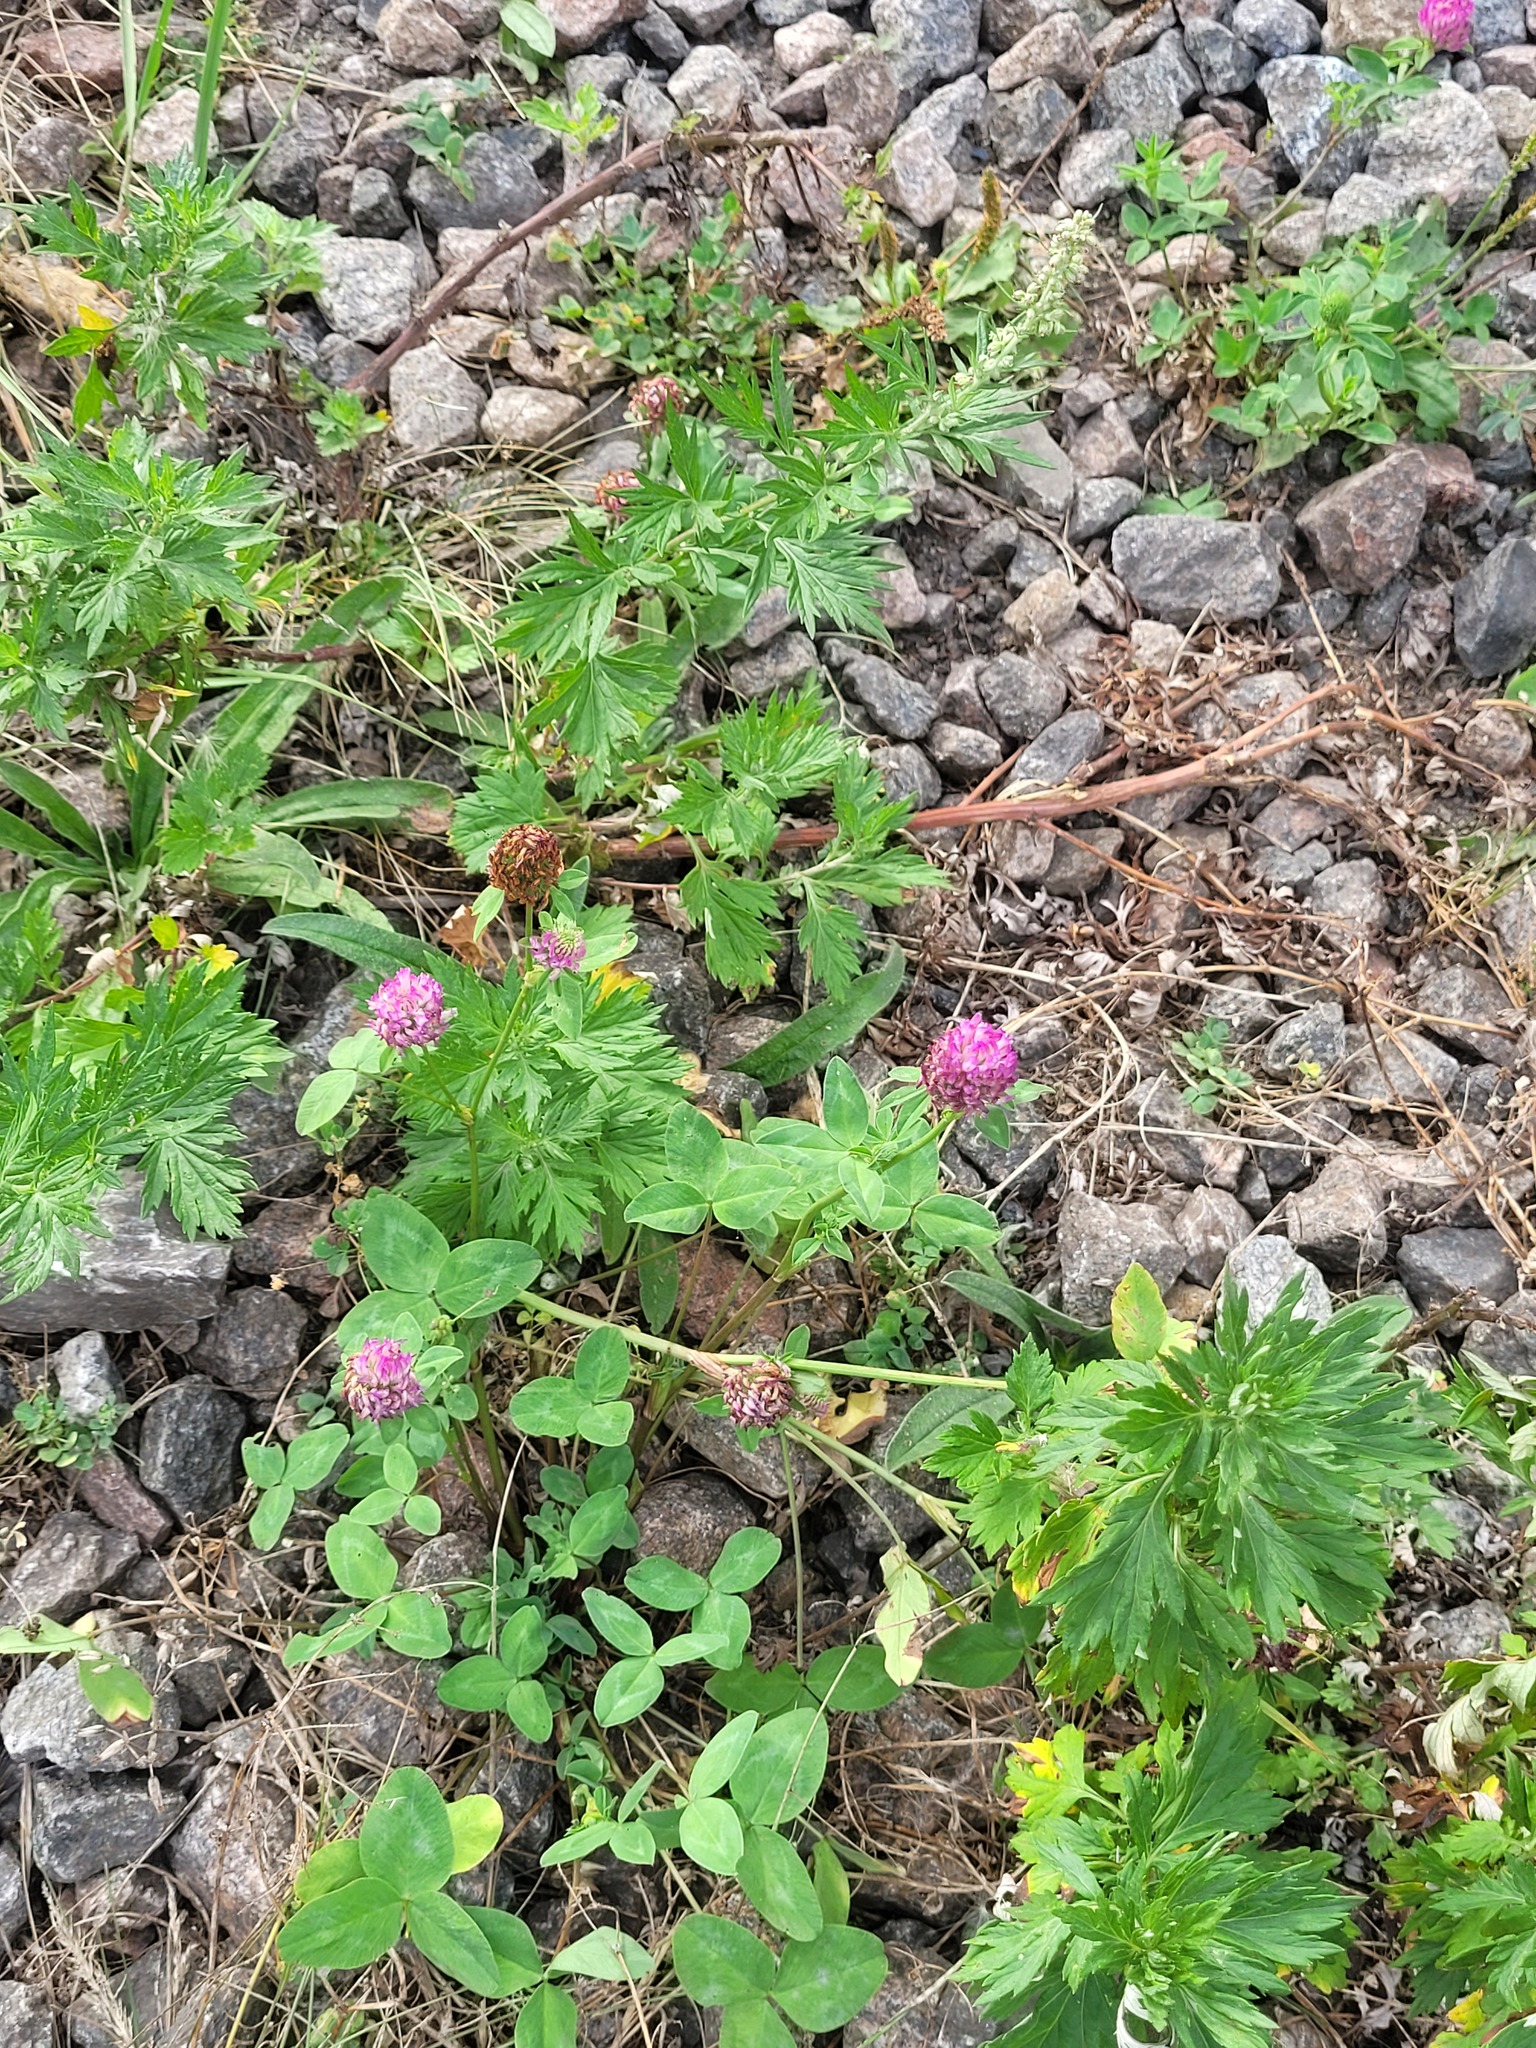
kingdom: Plantae
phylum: Tracheophyta
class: Magnoliopsida
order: Fabales
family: Fabaceae
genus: Trifolium
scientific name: Trifolium pratense
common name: Red clover
